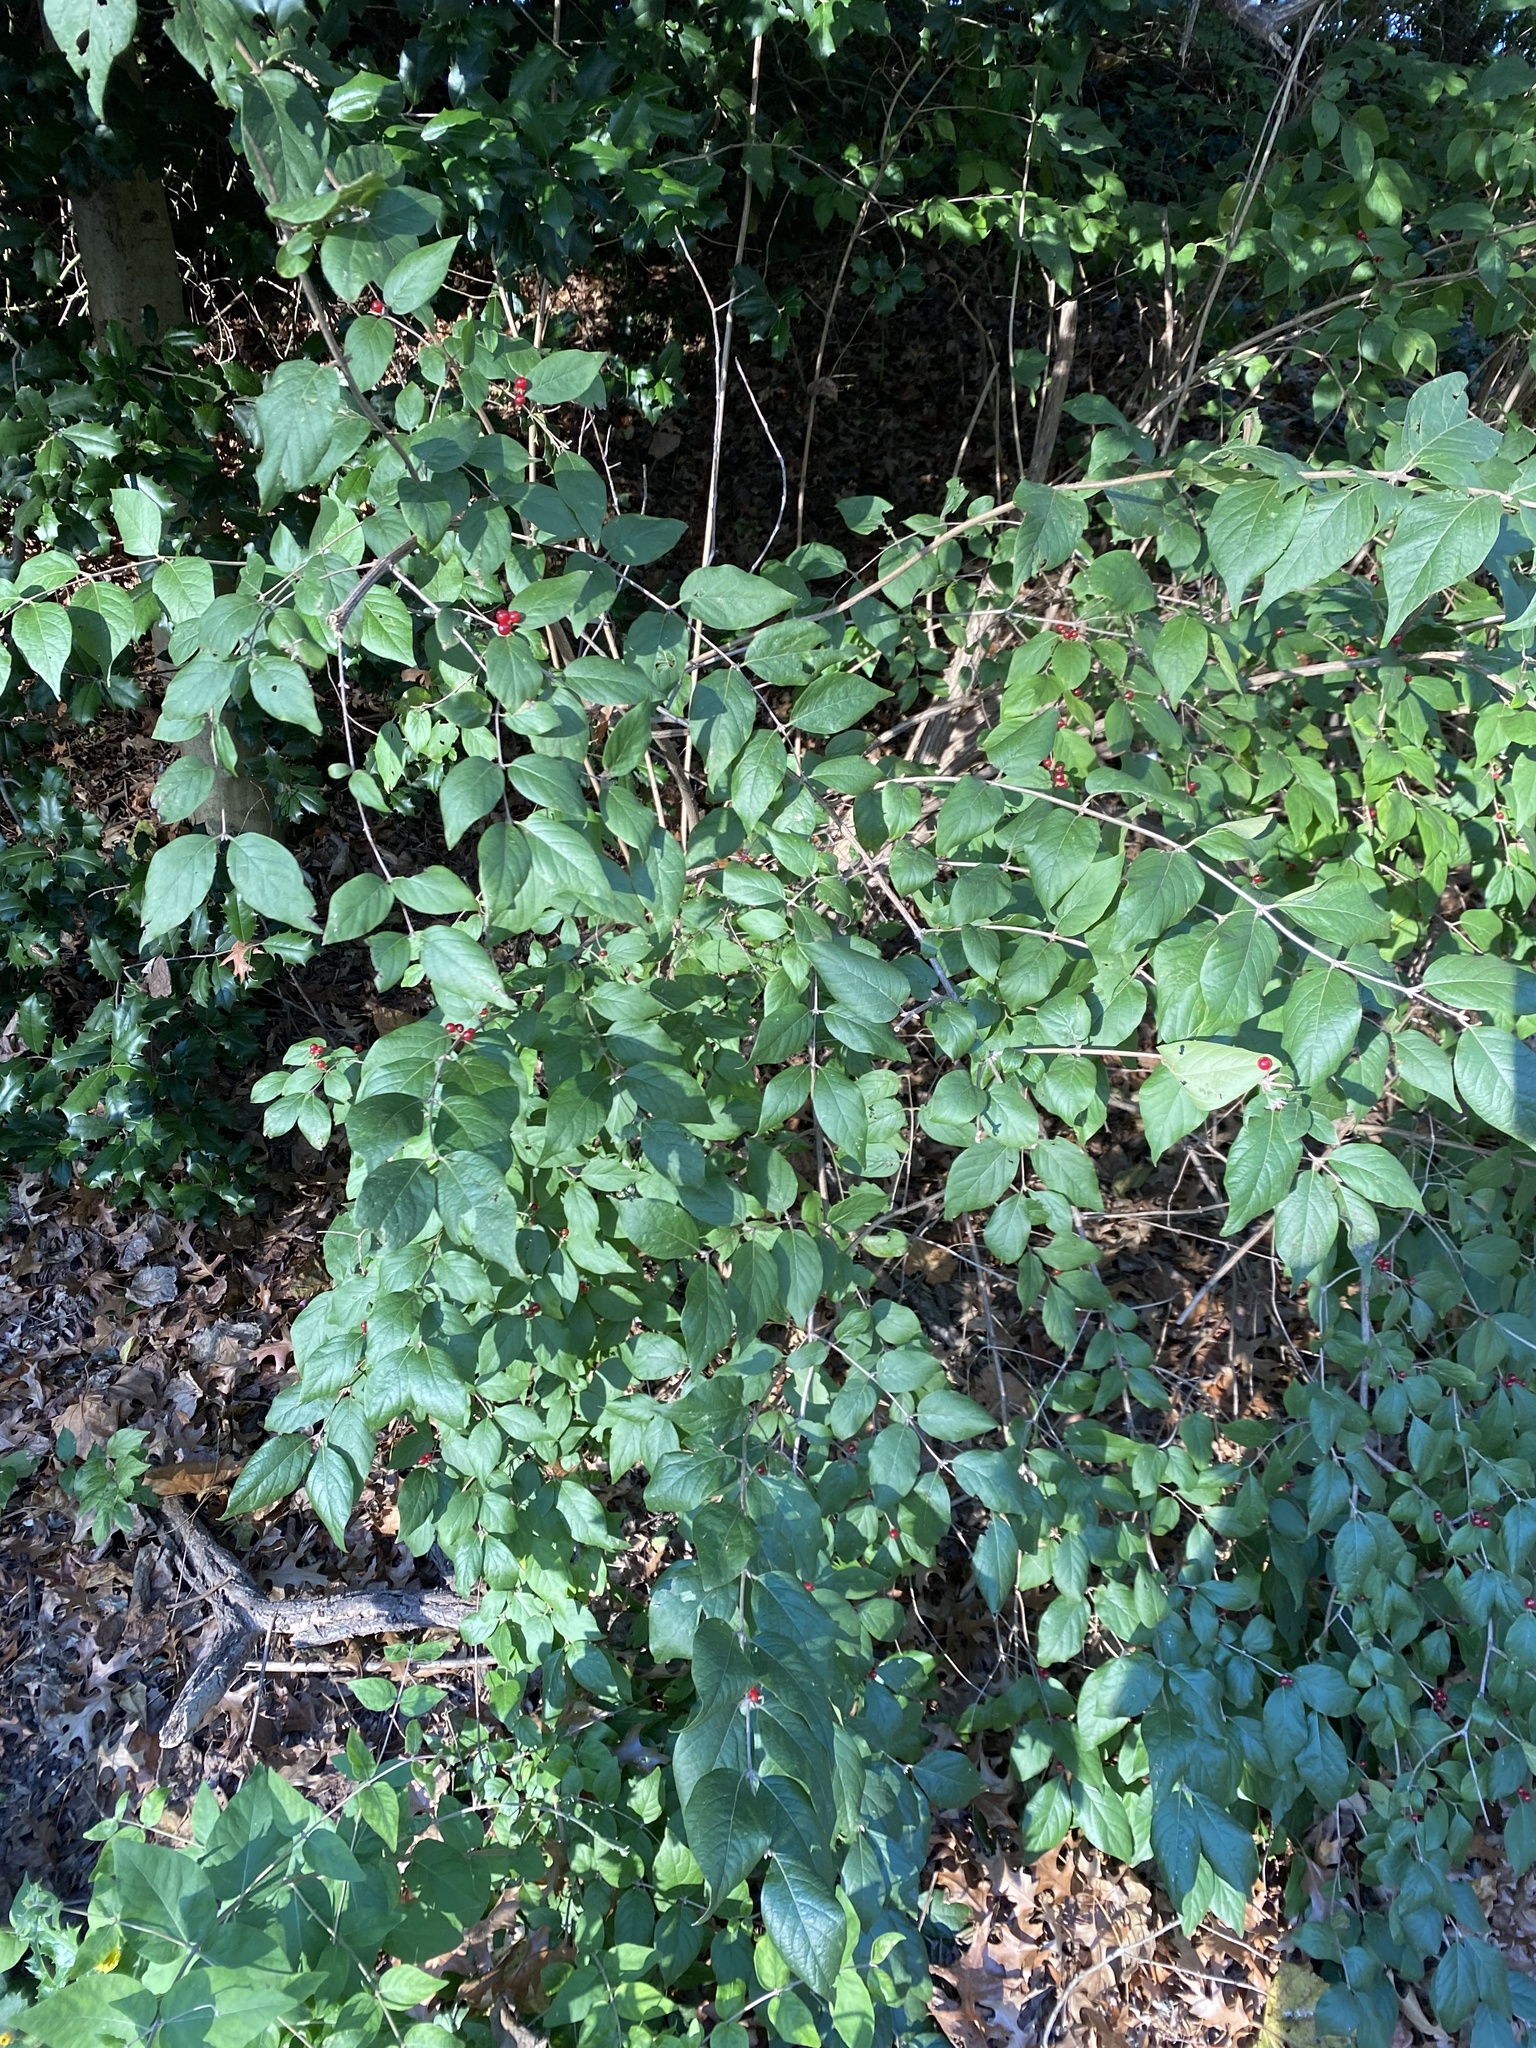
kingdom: Plantae
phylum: Tracheophyta
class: Magnoliopsida
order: Dipsacales
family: Caprifoliaceae
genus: Lonicera
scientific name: Lonicera maackii
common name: Amur honeysuckle
